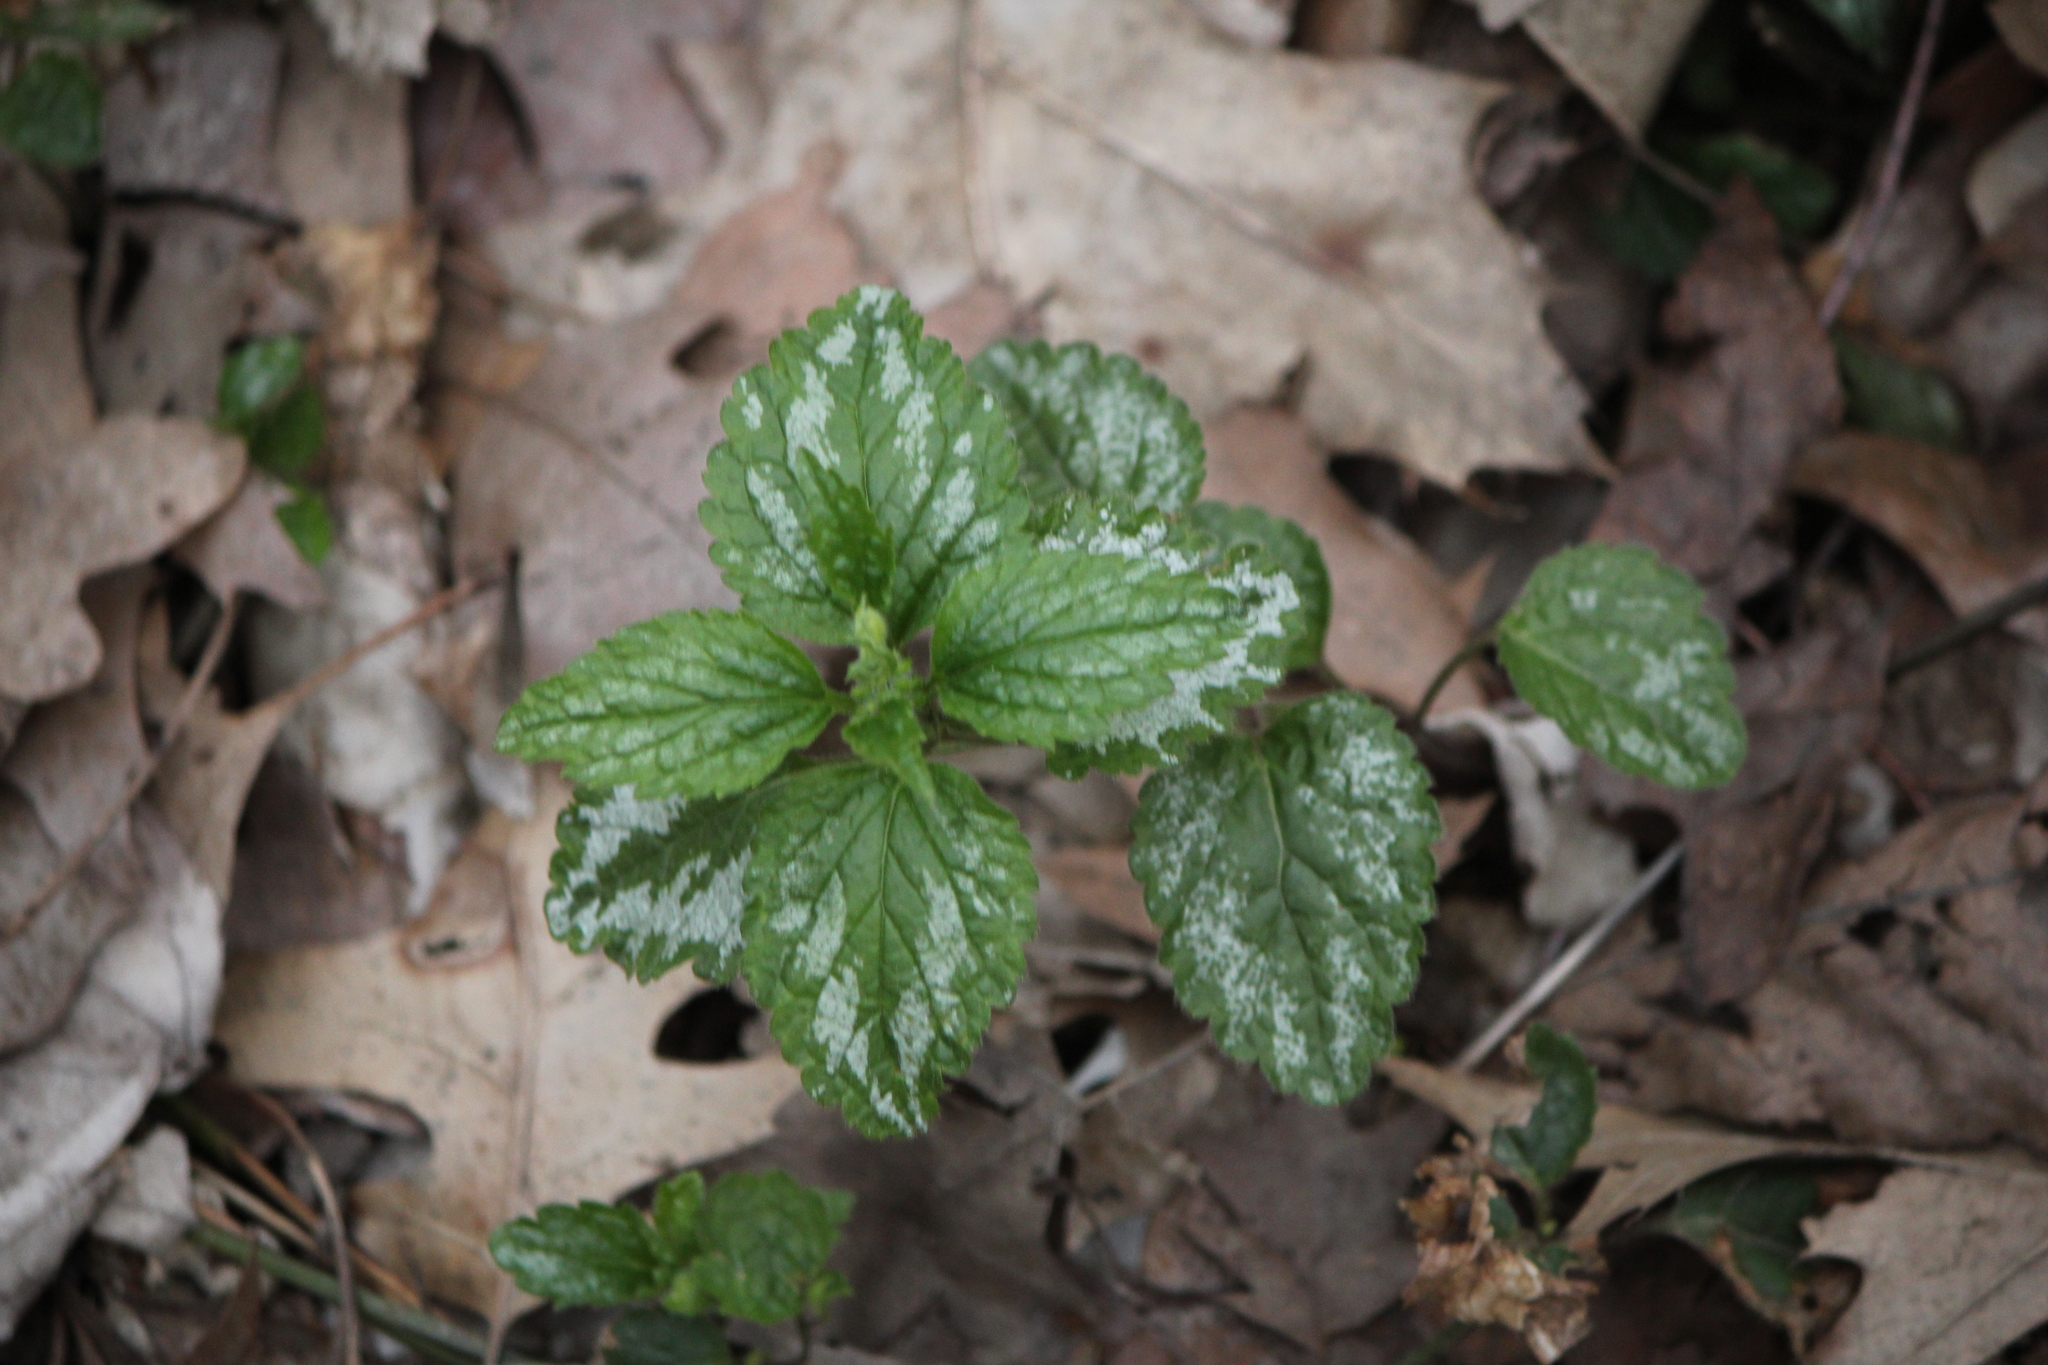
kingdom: Plantae
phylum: Tracheophyta
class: Magnoliopsida
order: Lamiales
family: Lamiaceae
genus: Lamium
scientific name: Lamium galeobdolon
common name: Yellow archangel
